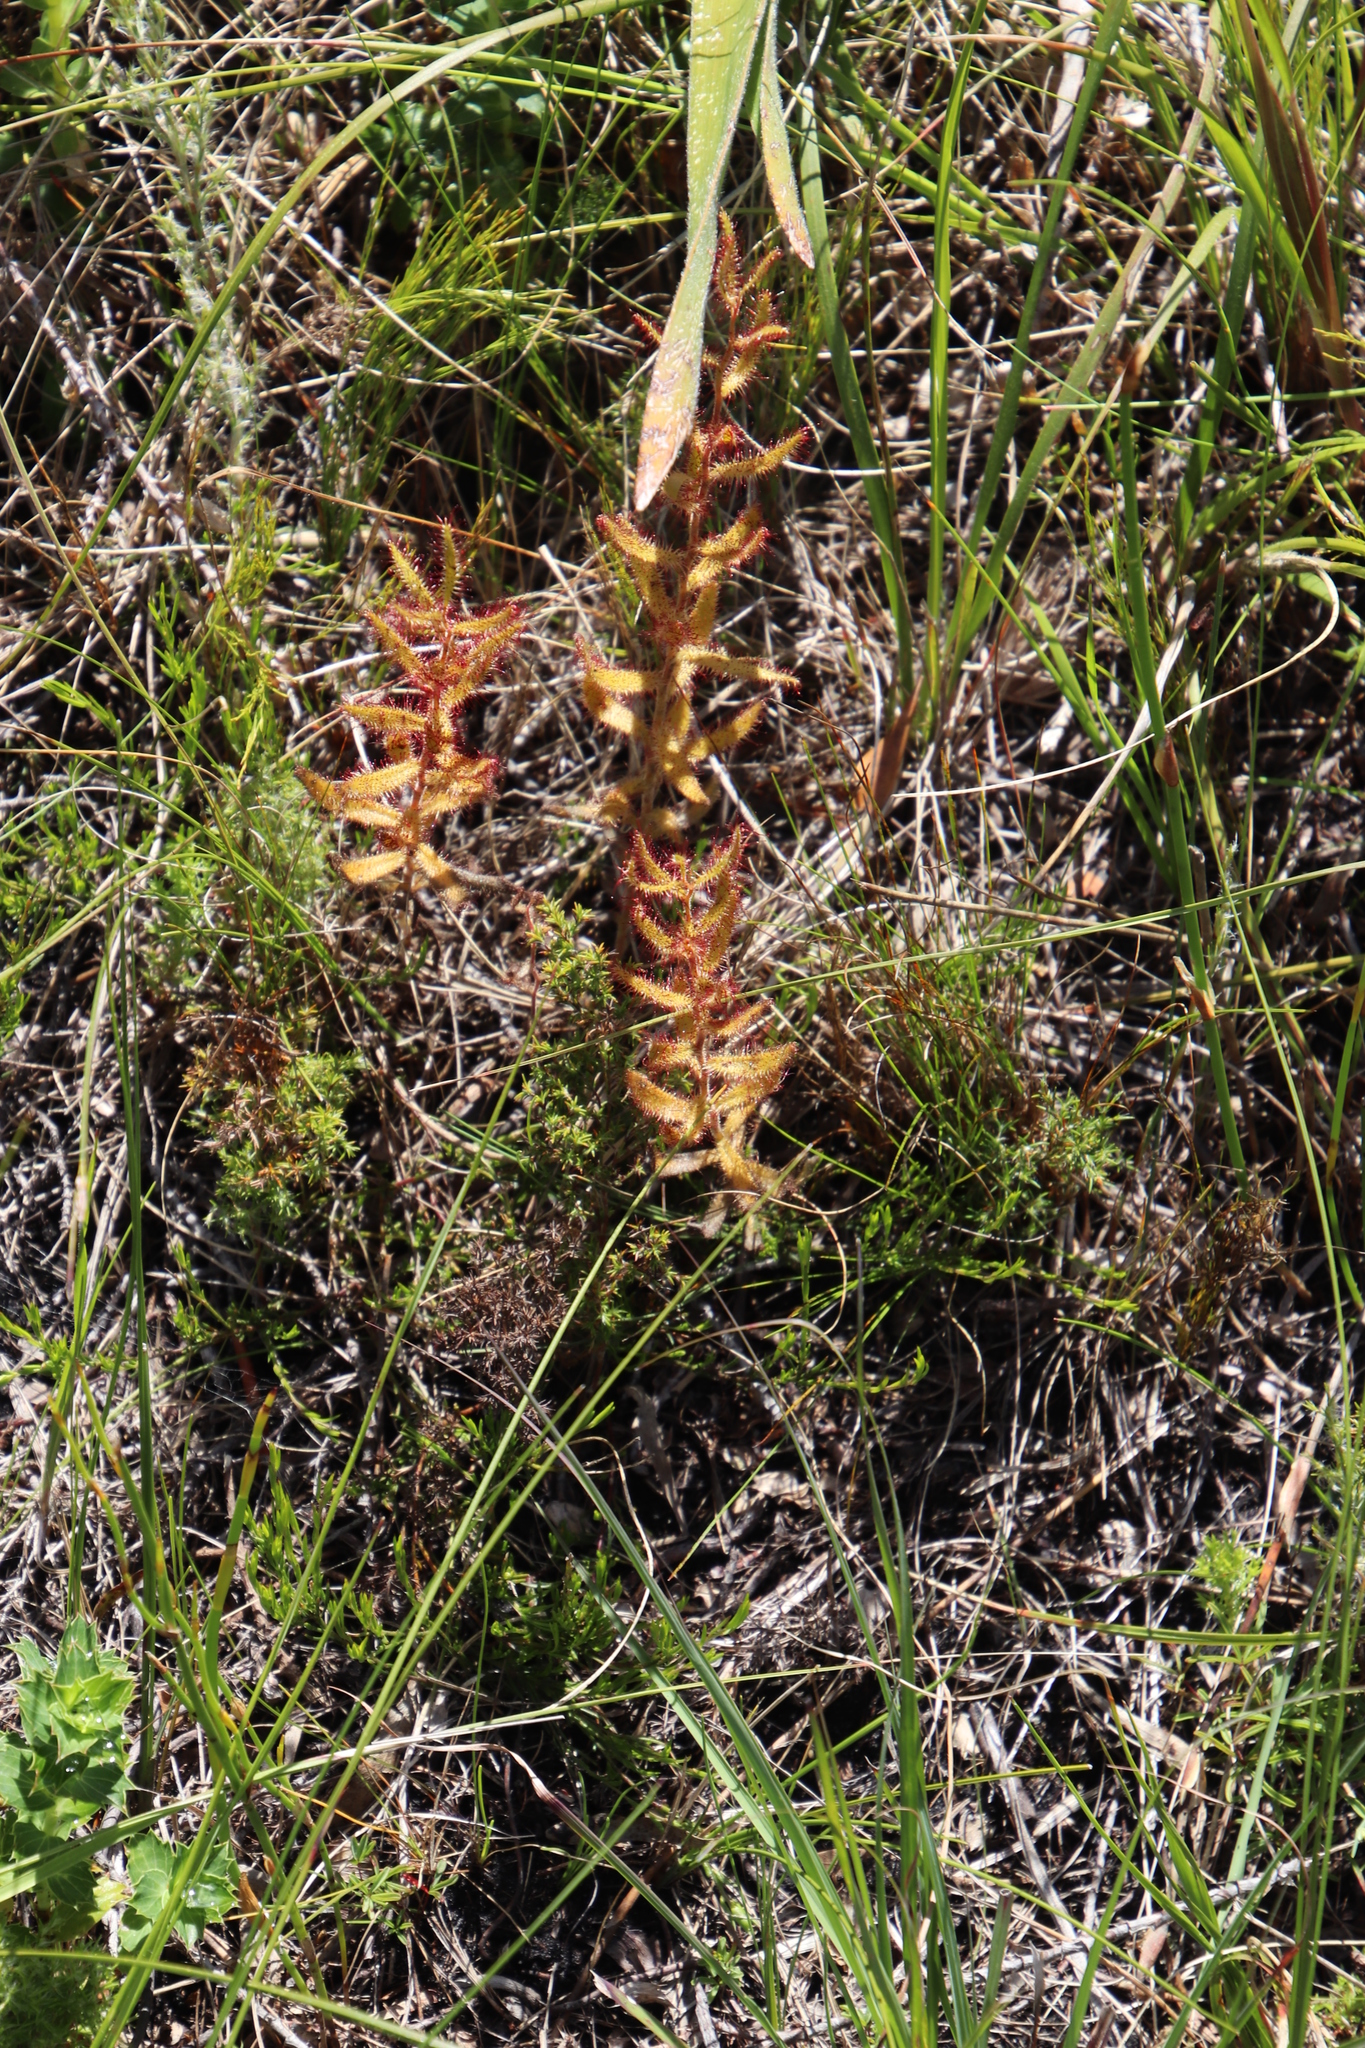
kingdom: Plantae
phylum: Tracheophyta
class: Magnoliopsida
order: Caryophyllales
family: Droseraceae
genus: Drosera
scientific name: Drosera cistiflora
